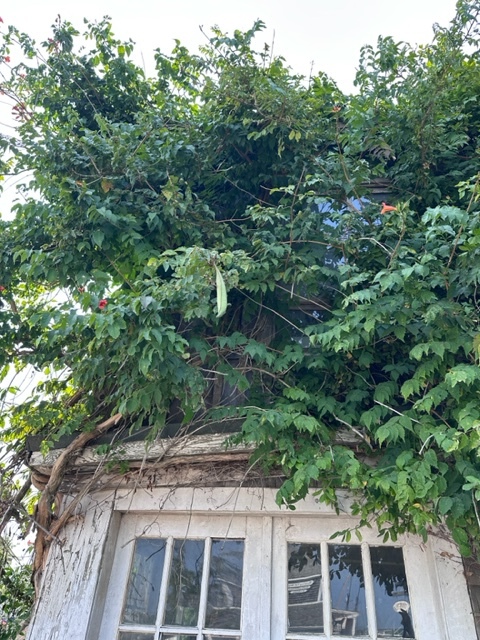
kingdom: Plantae
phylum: Tracheophyta
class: Magnoliopsida
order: Lamiales
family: Bignoniaceae
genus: Campsis
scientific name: Campsis radicans
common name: Trumpet-creeper
